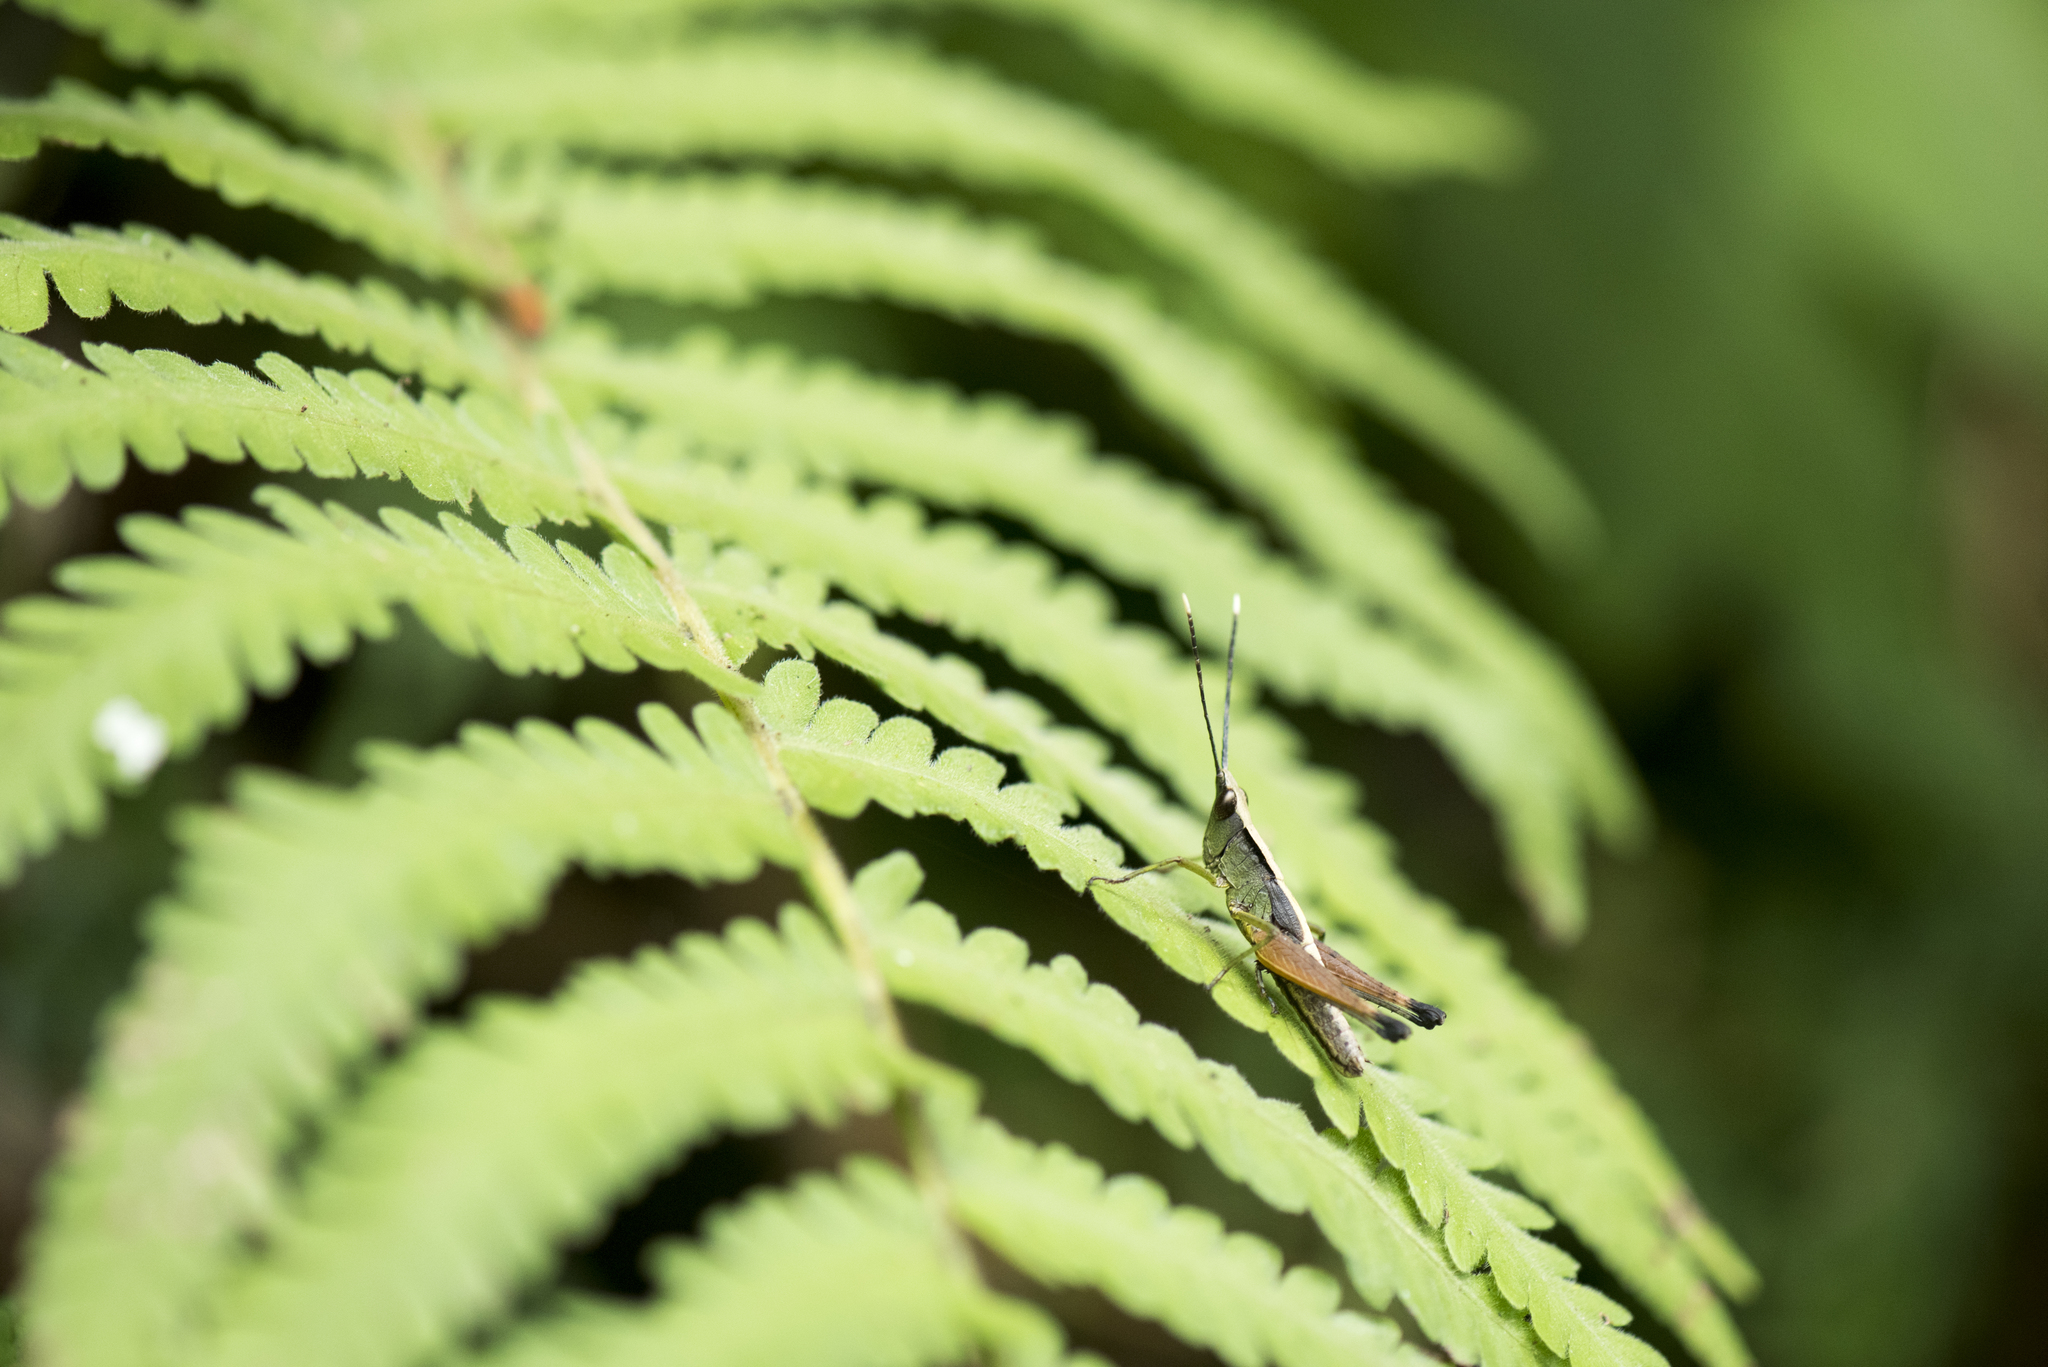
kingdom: Animalia
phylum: Arthropoda
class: Insecta
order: Orthoptera
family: Acrididae
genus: Phlaeoba
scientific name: Phlaeoba formosana
